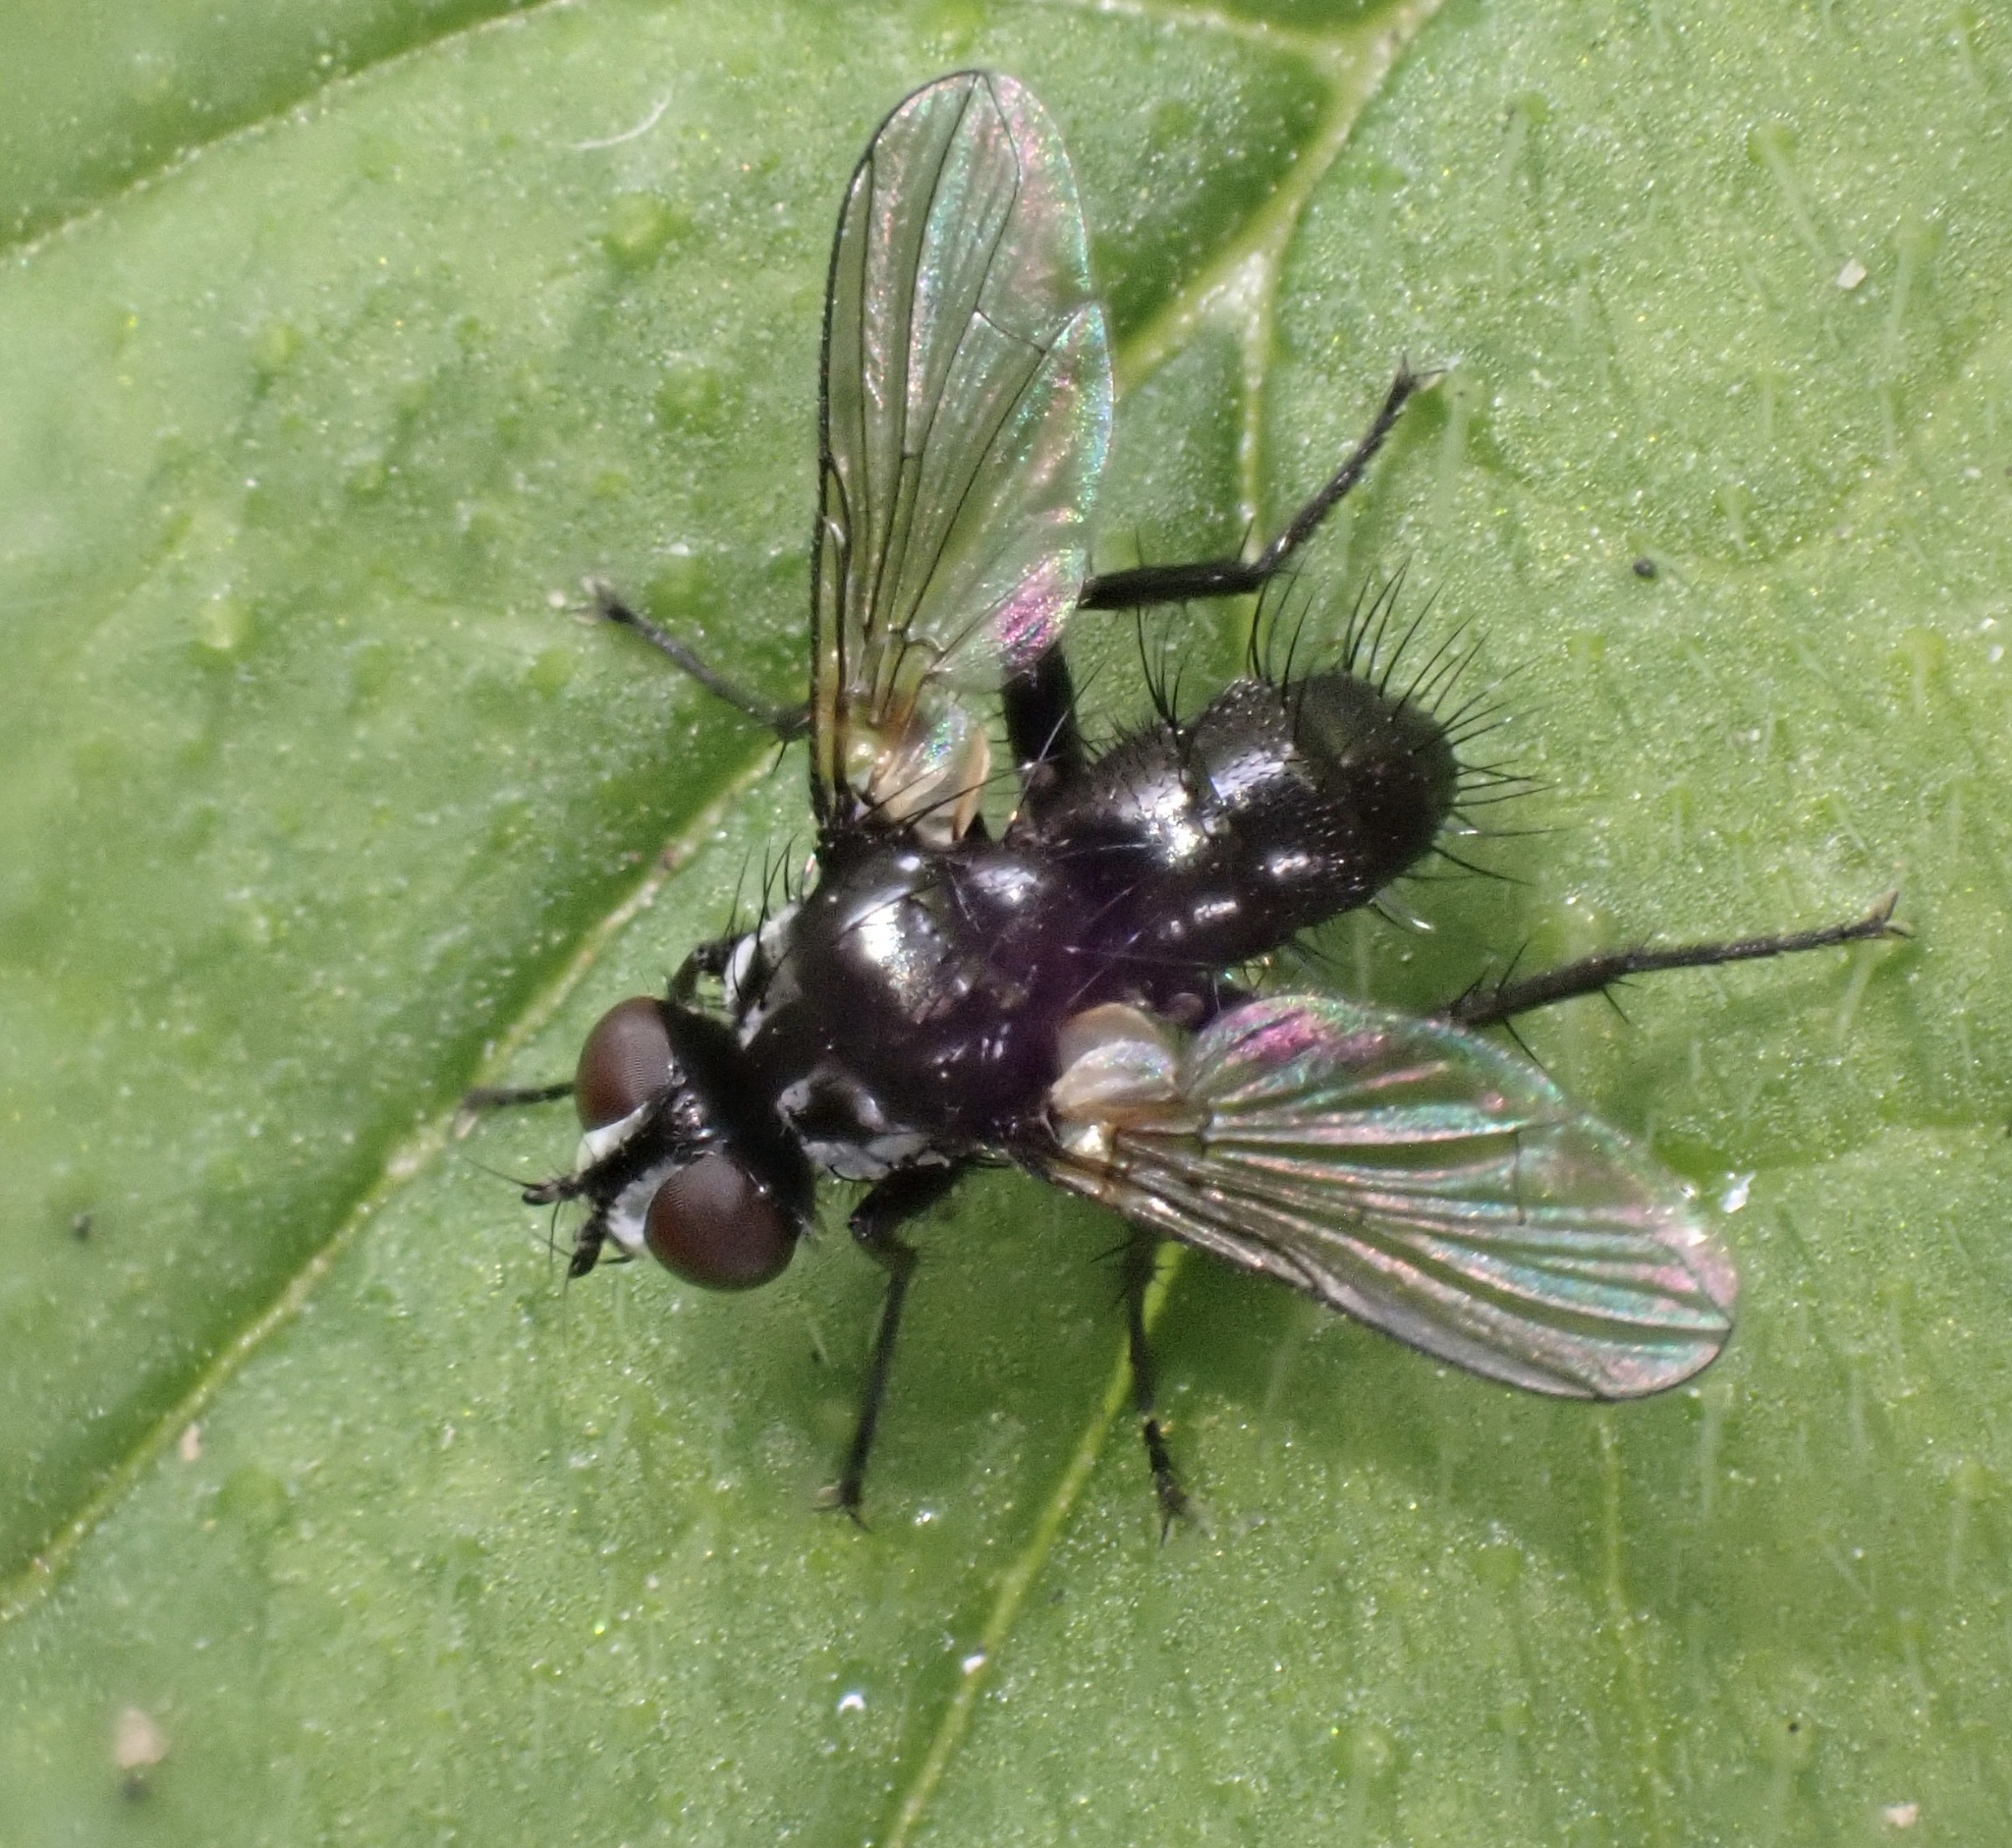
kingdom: Animalia
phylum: Arthropoda
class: Insecta
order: Diptera
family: Tachinidae
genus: Phania
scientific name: Phania funesta
